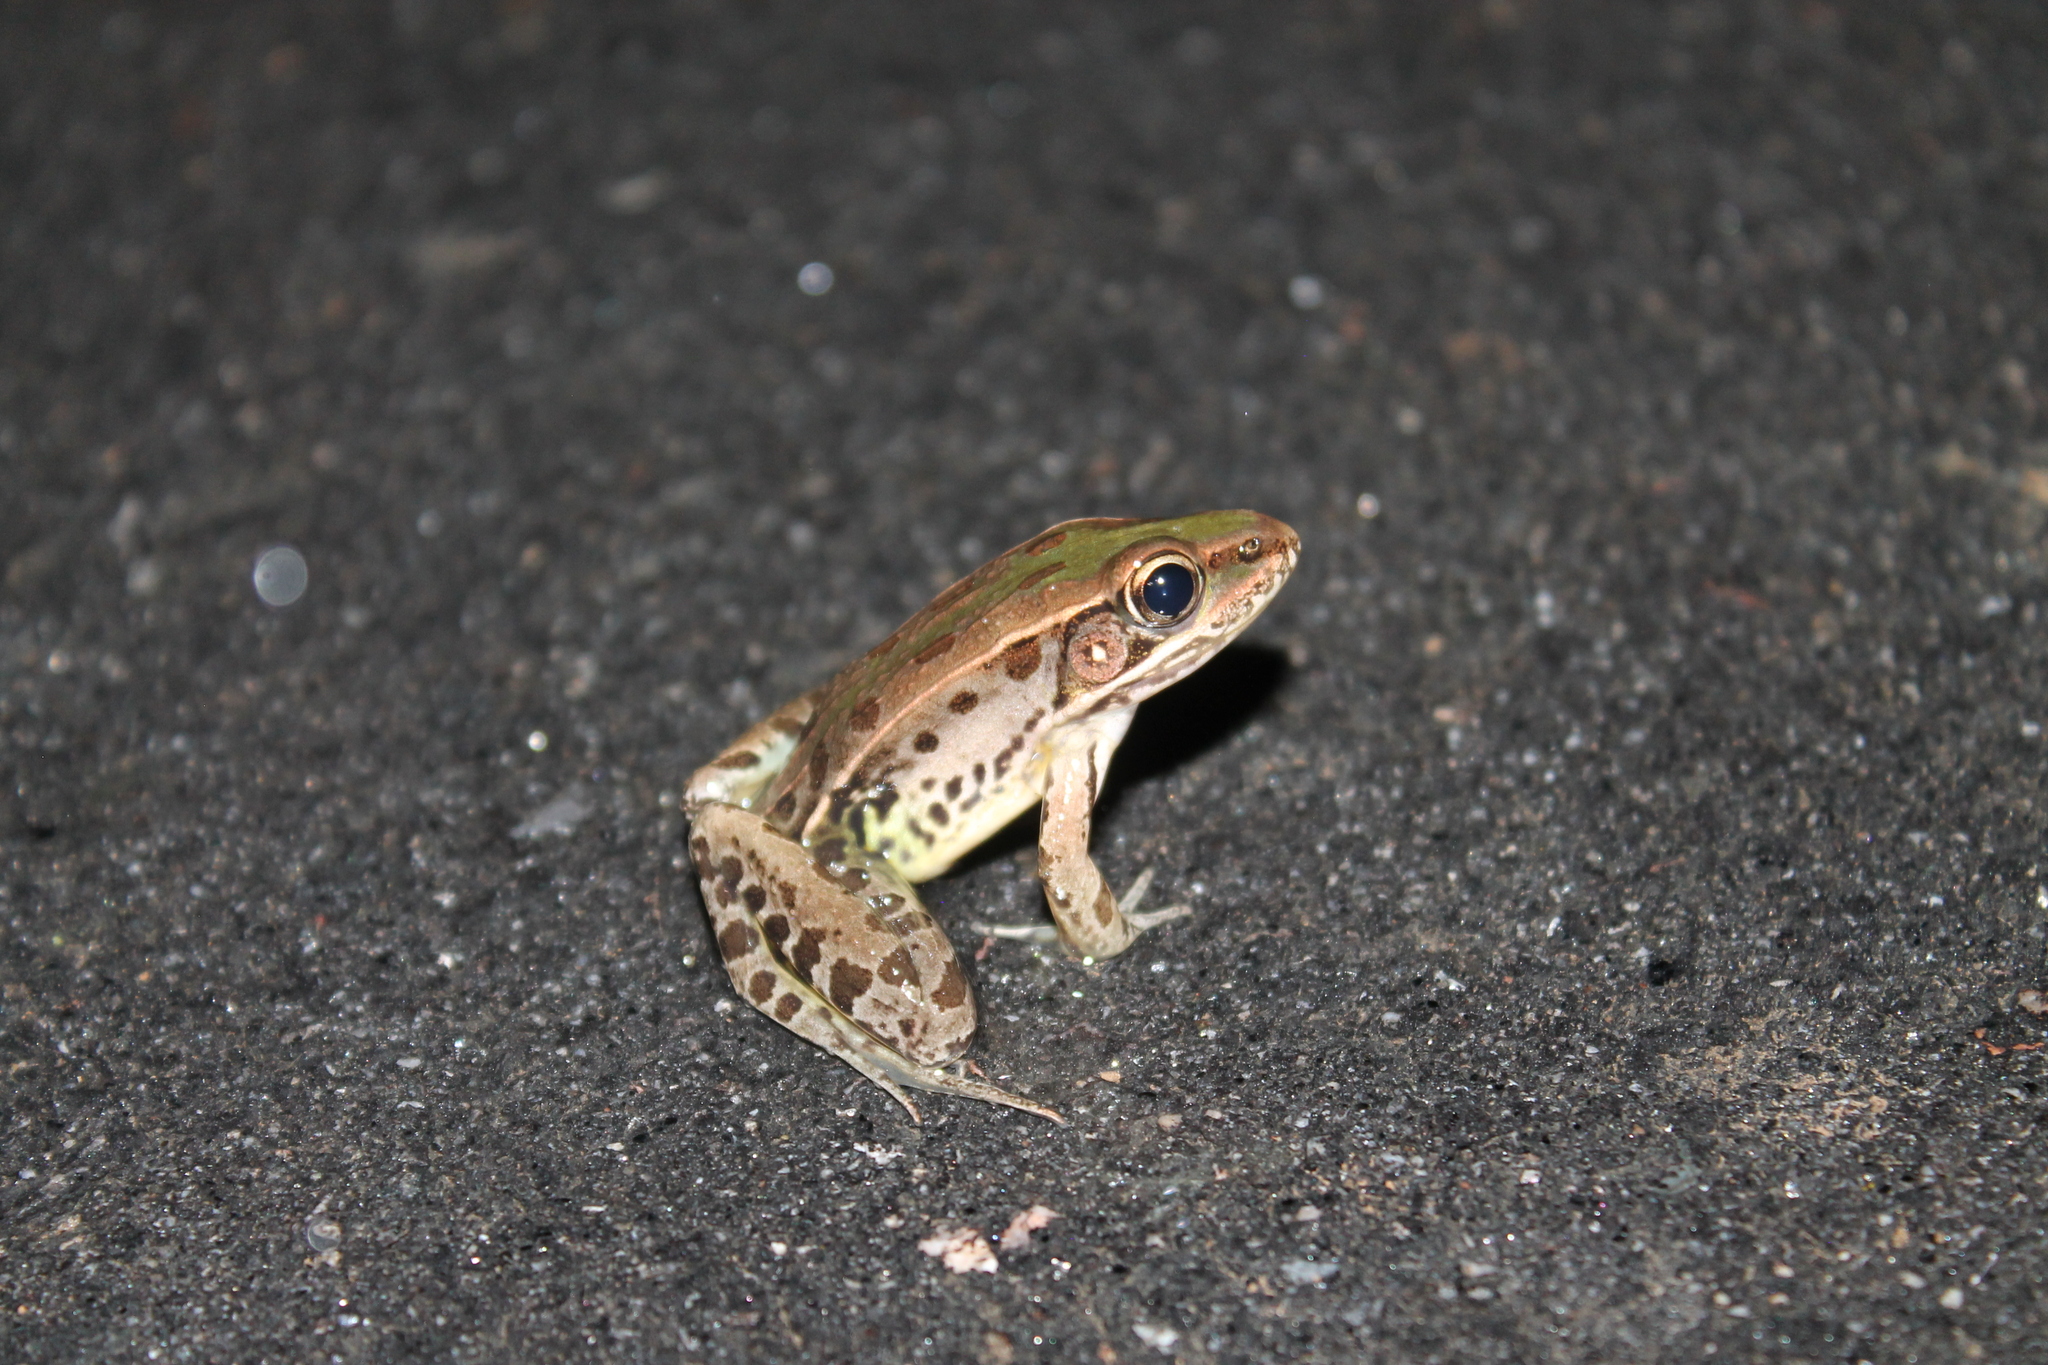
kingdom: Animalia
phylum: Chordata
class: Amphibia
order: Anura
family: Ranidae
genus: Lithobates
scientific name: Lithobates sphenocephalus
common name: Southern leopard frog
